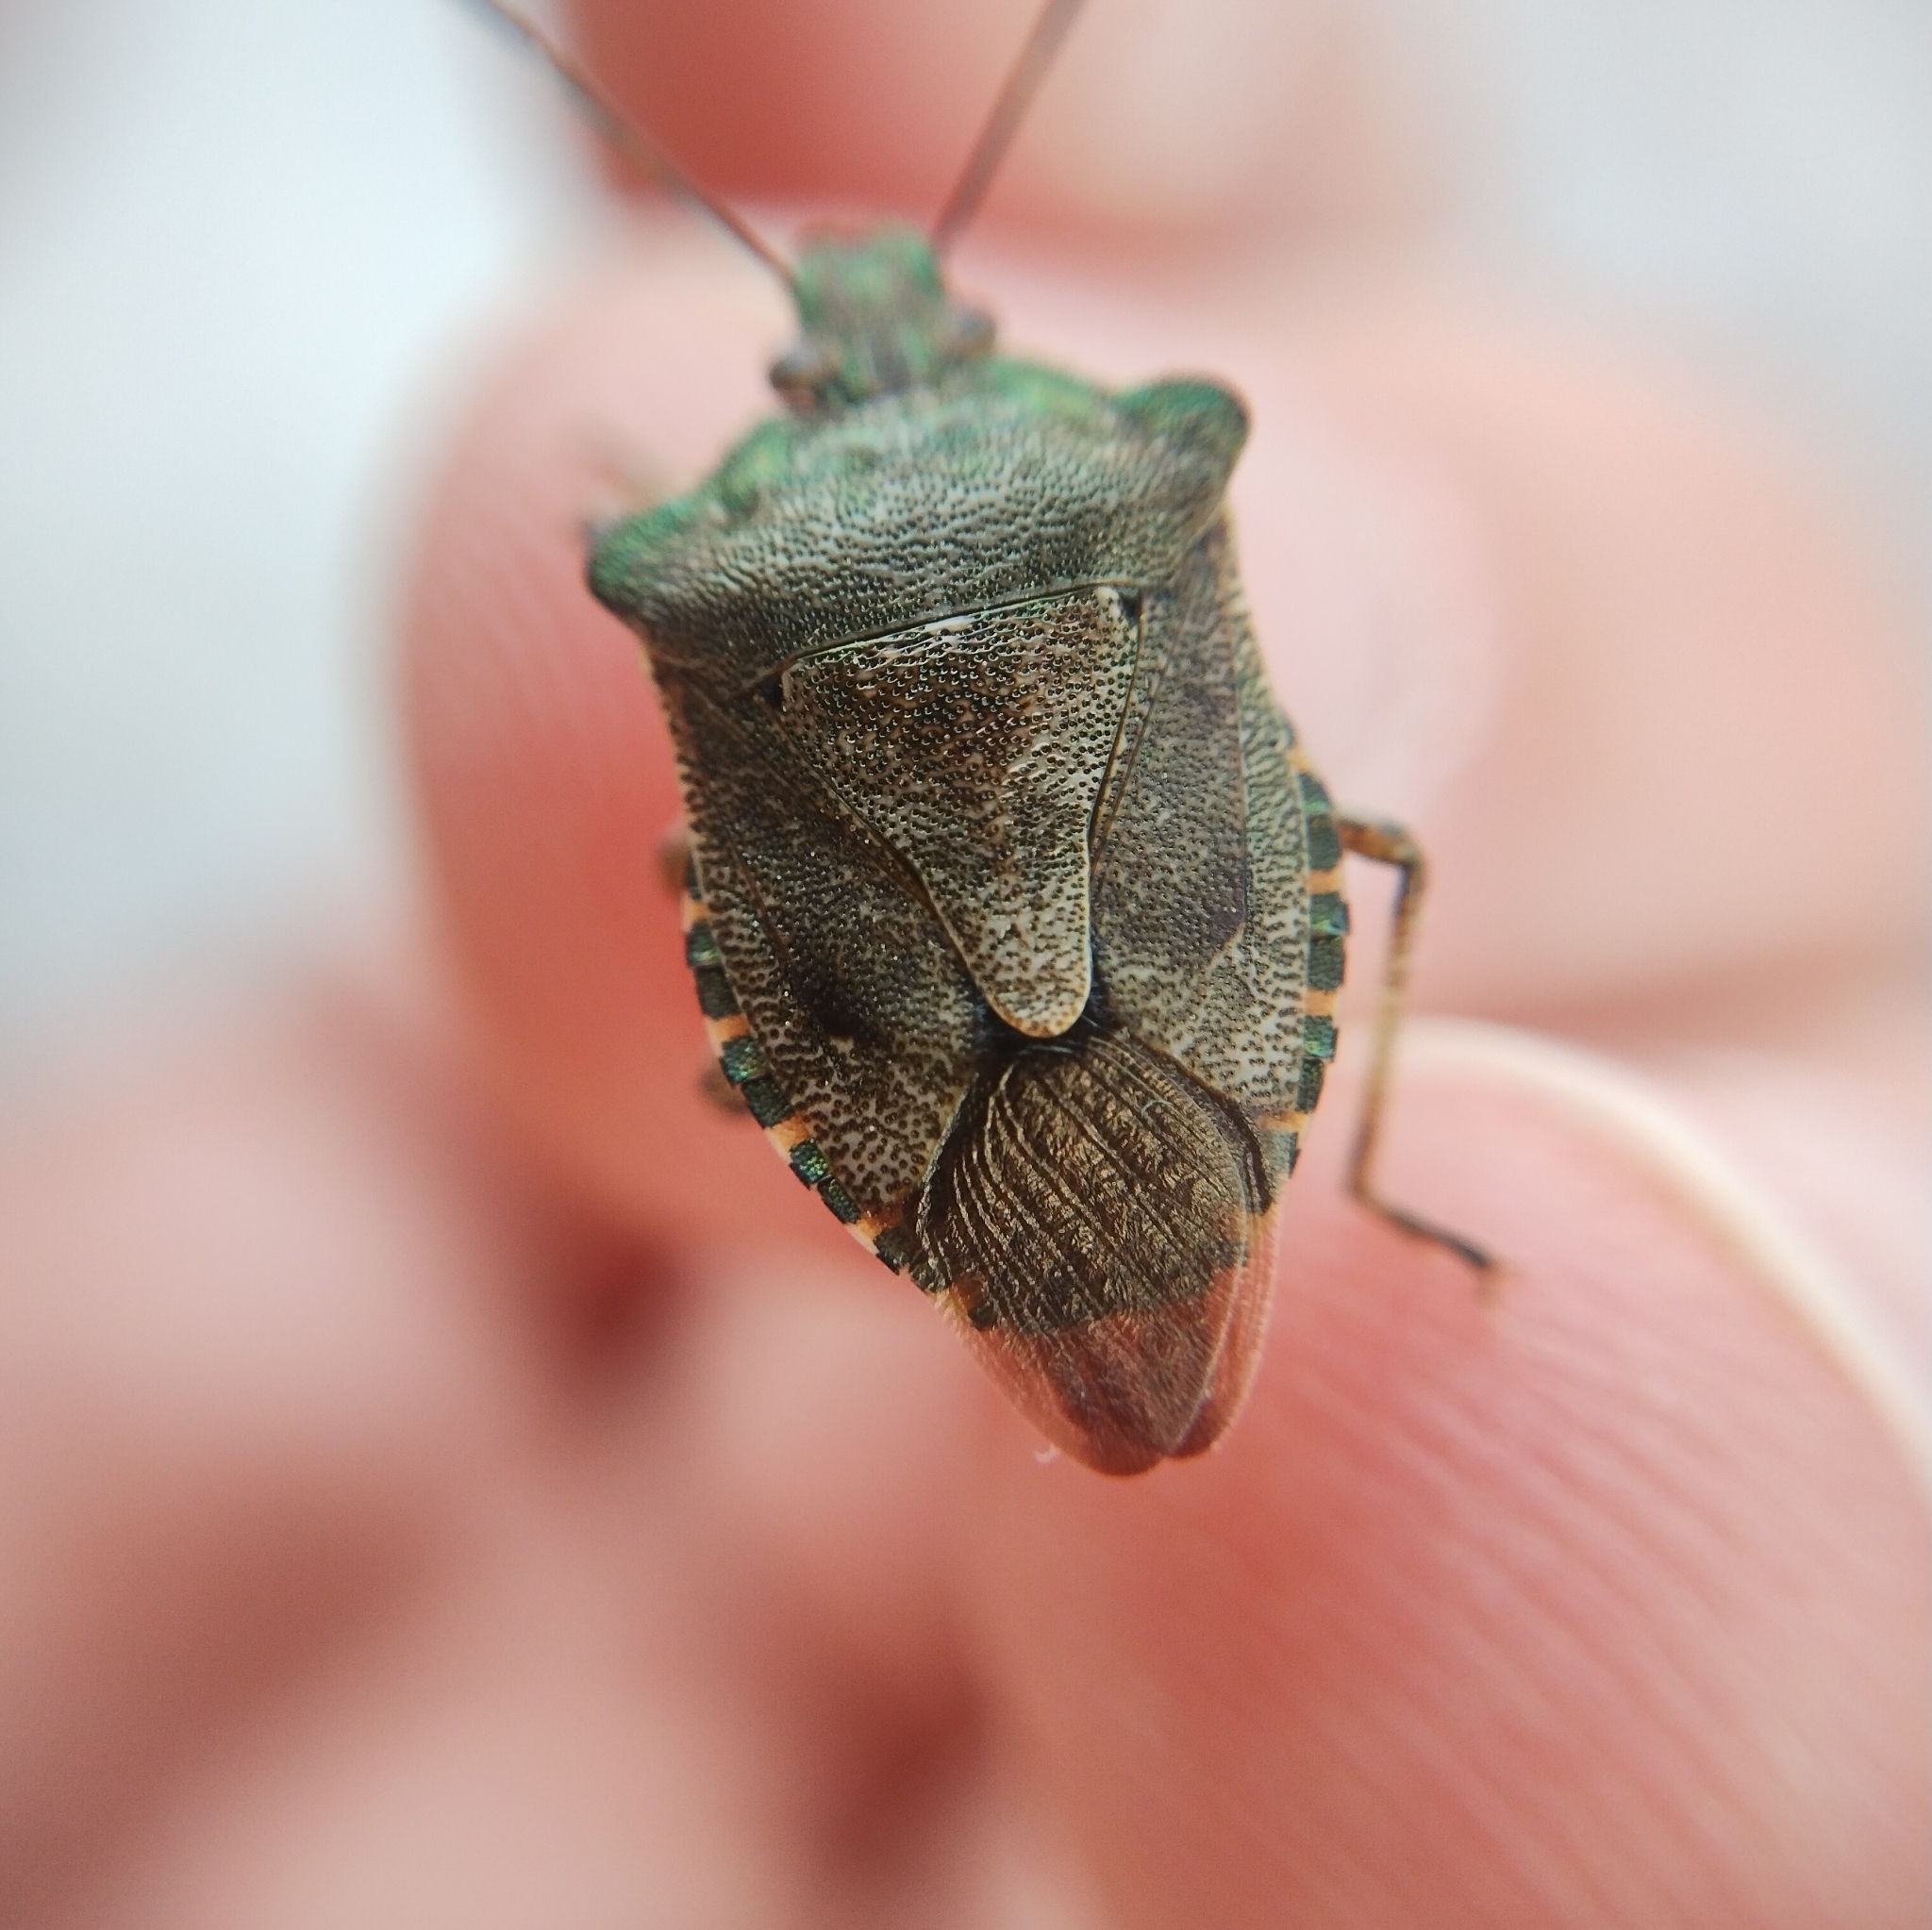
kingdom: Animalia
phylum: Arthropoda
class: Insecta
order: Hemiptera
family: Pentatomidae
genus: Troilus
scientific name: Troilus luridus
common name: Bronze shieldbug
